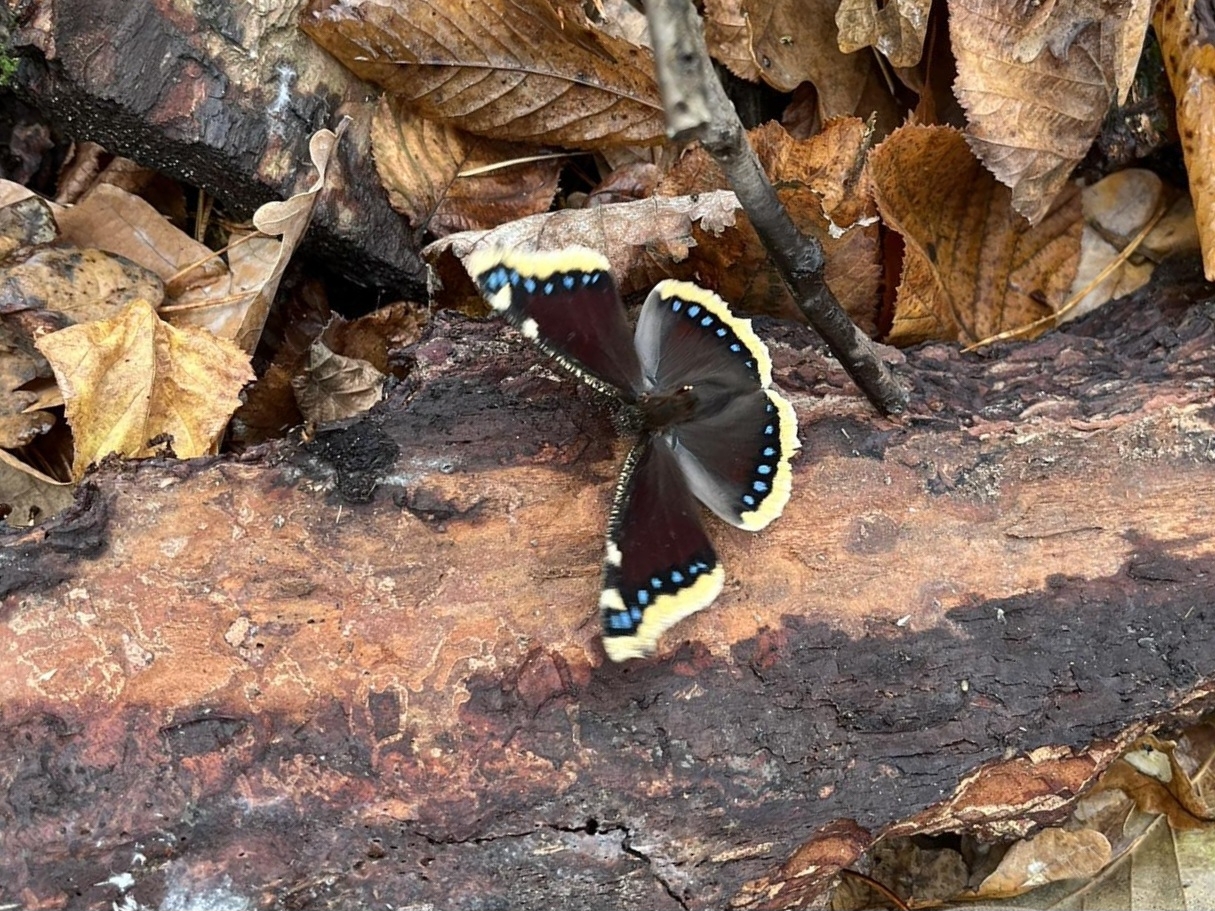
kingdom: Animalia
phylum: Arthropoda
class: Insecta
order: Lepidoptera
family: Nymphalidae
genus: Nymphalis
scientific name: Nymphalis antiopa
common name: Camberwell beauty
